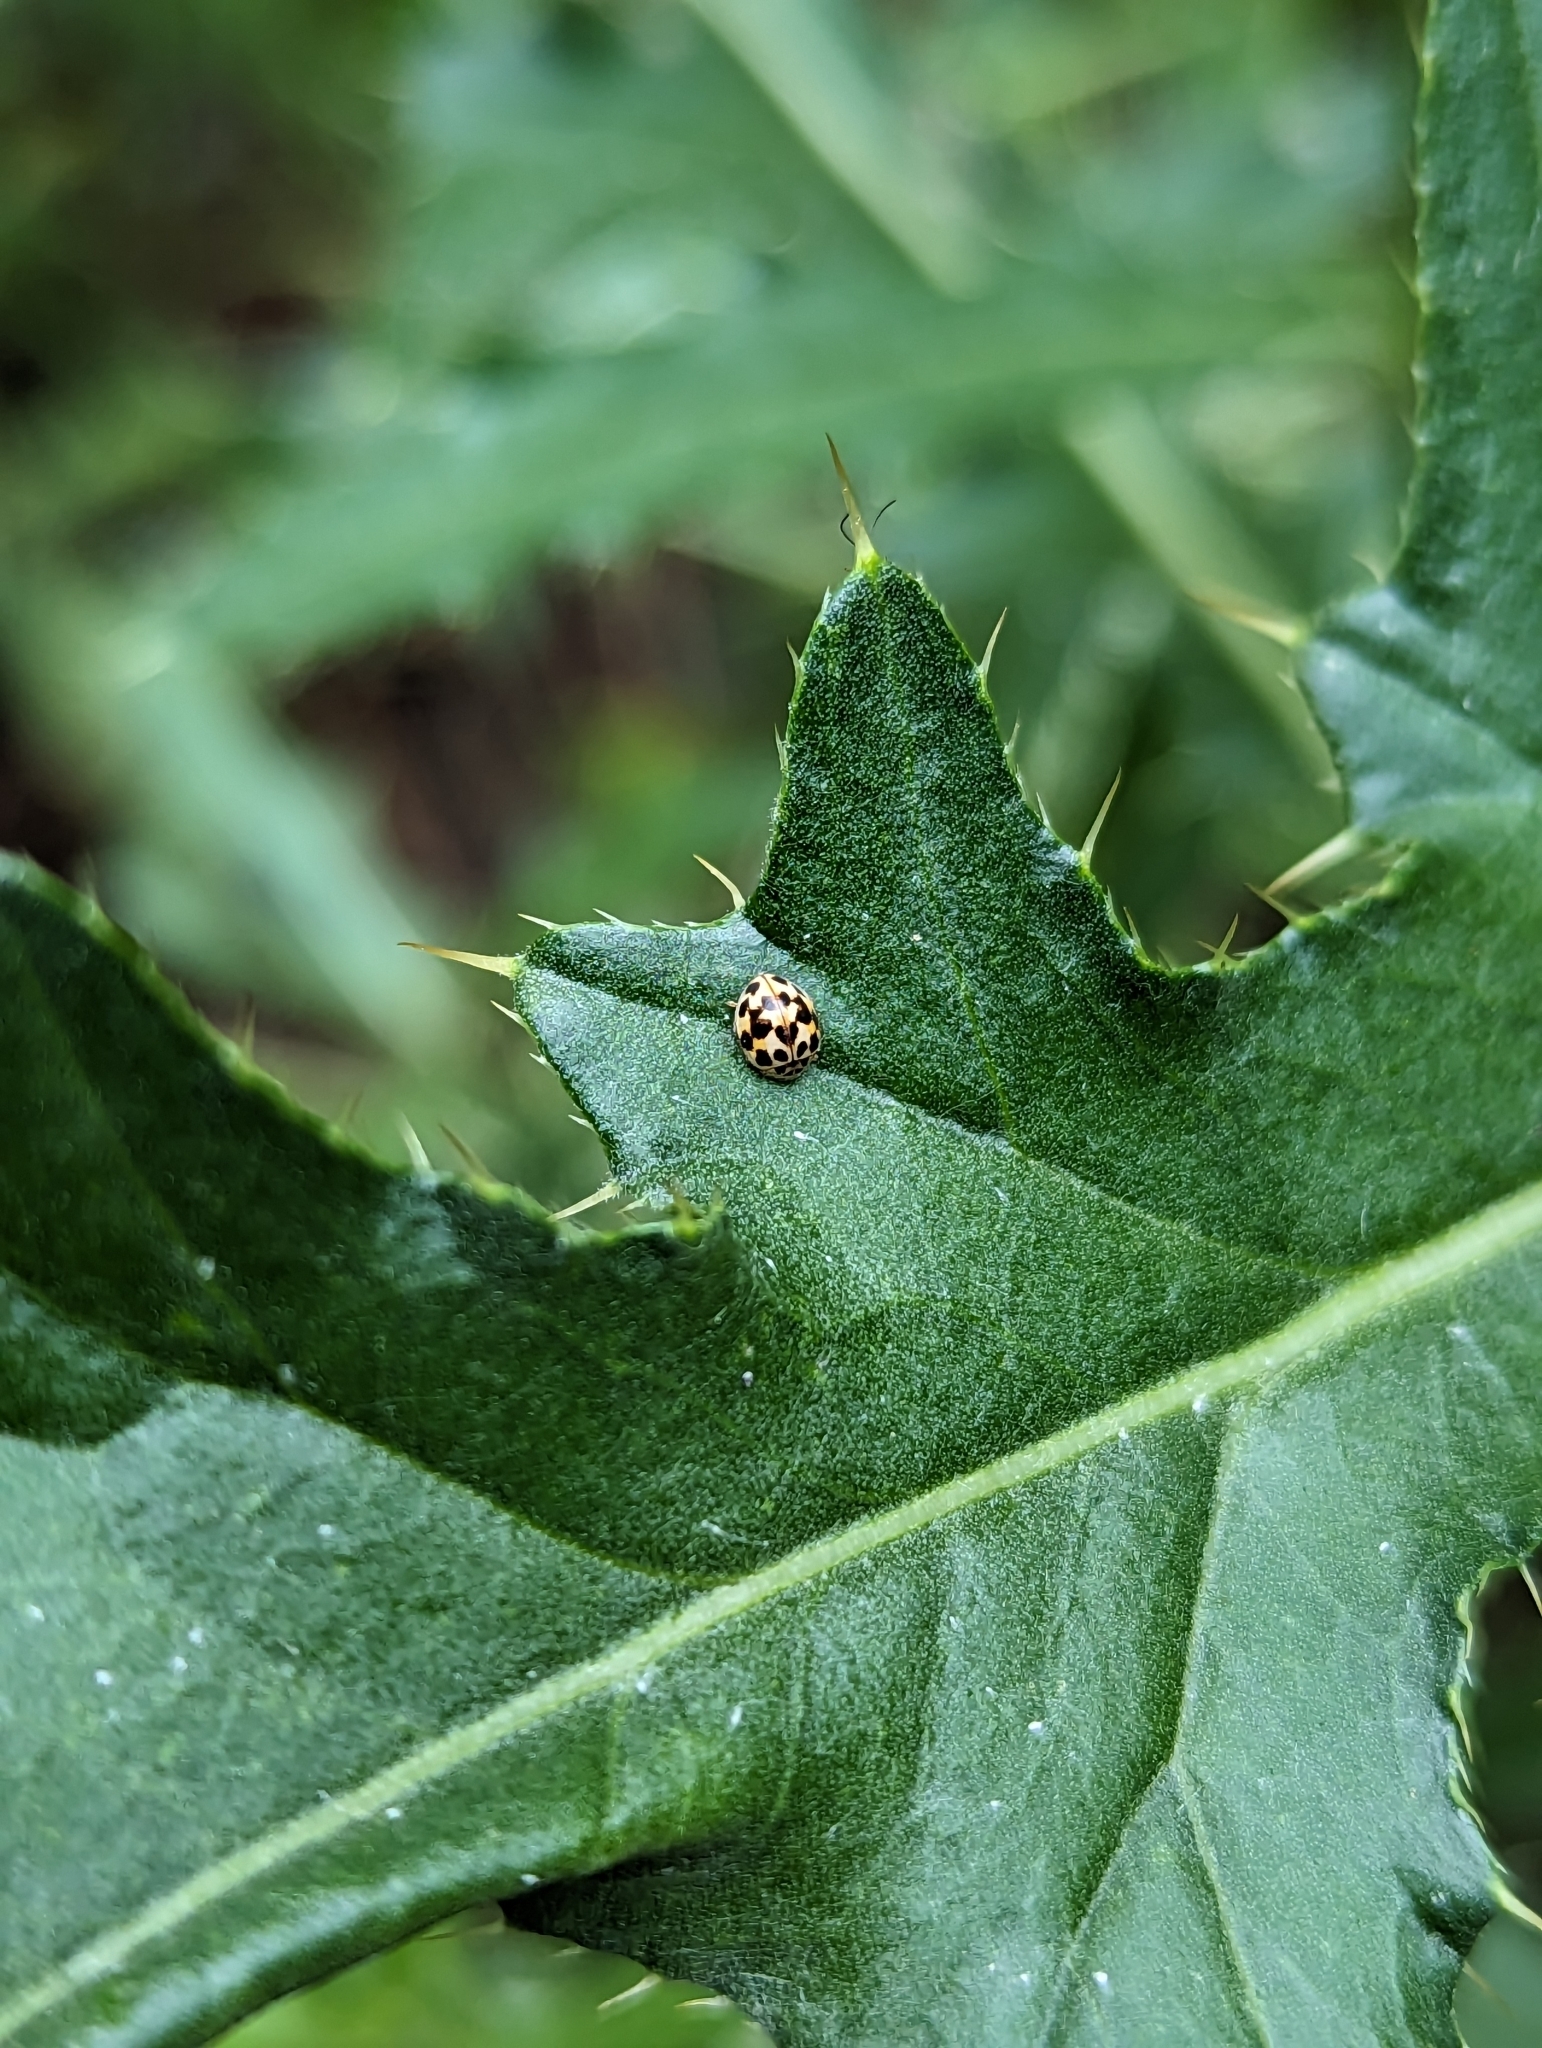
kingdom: Animalia
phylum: Arthropoda
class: Insecta
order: Coleoptera
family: Coccinellidae
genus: Psyllobora
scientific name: Psyllobora vigintimaculata
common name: Ladybird beetle
